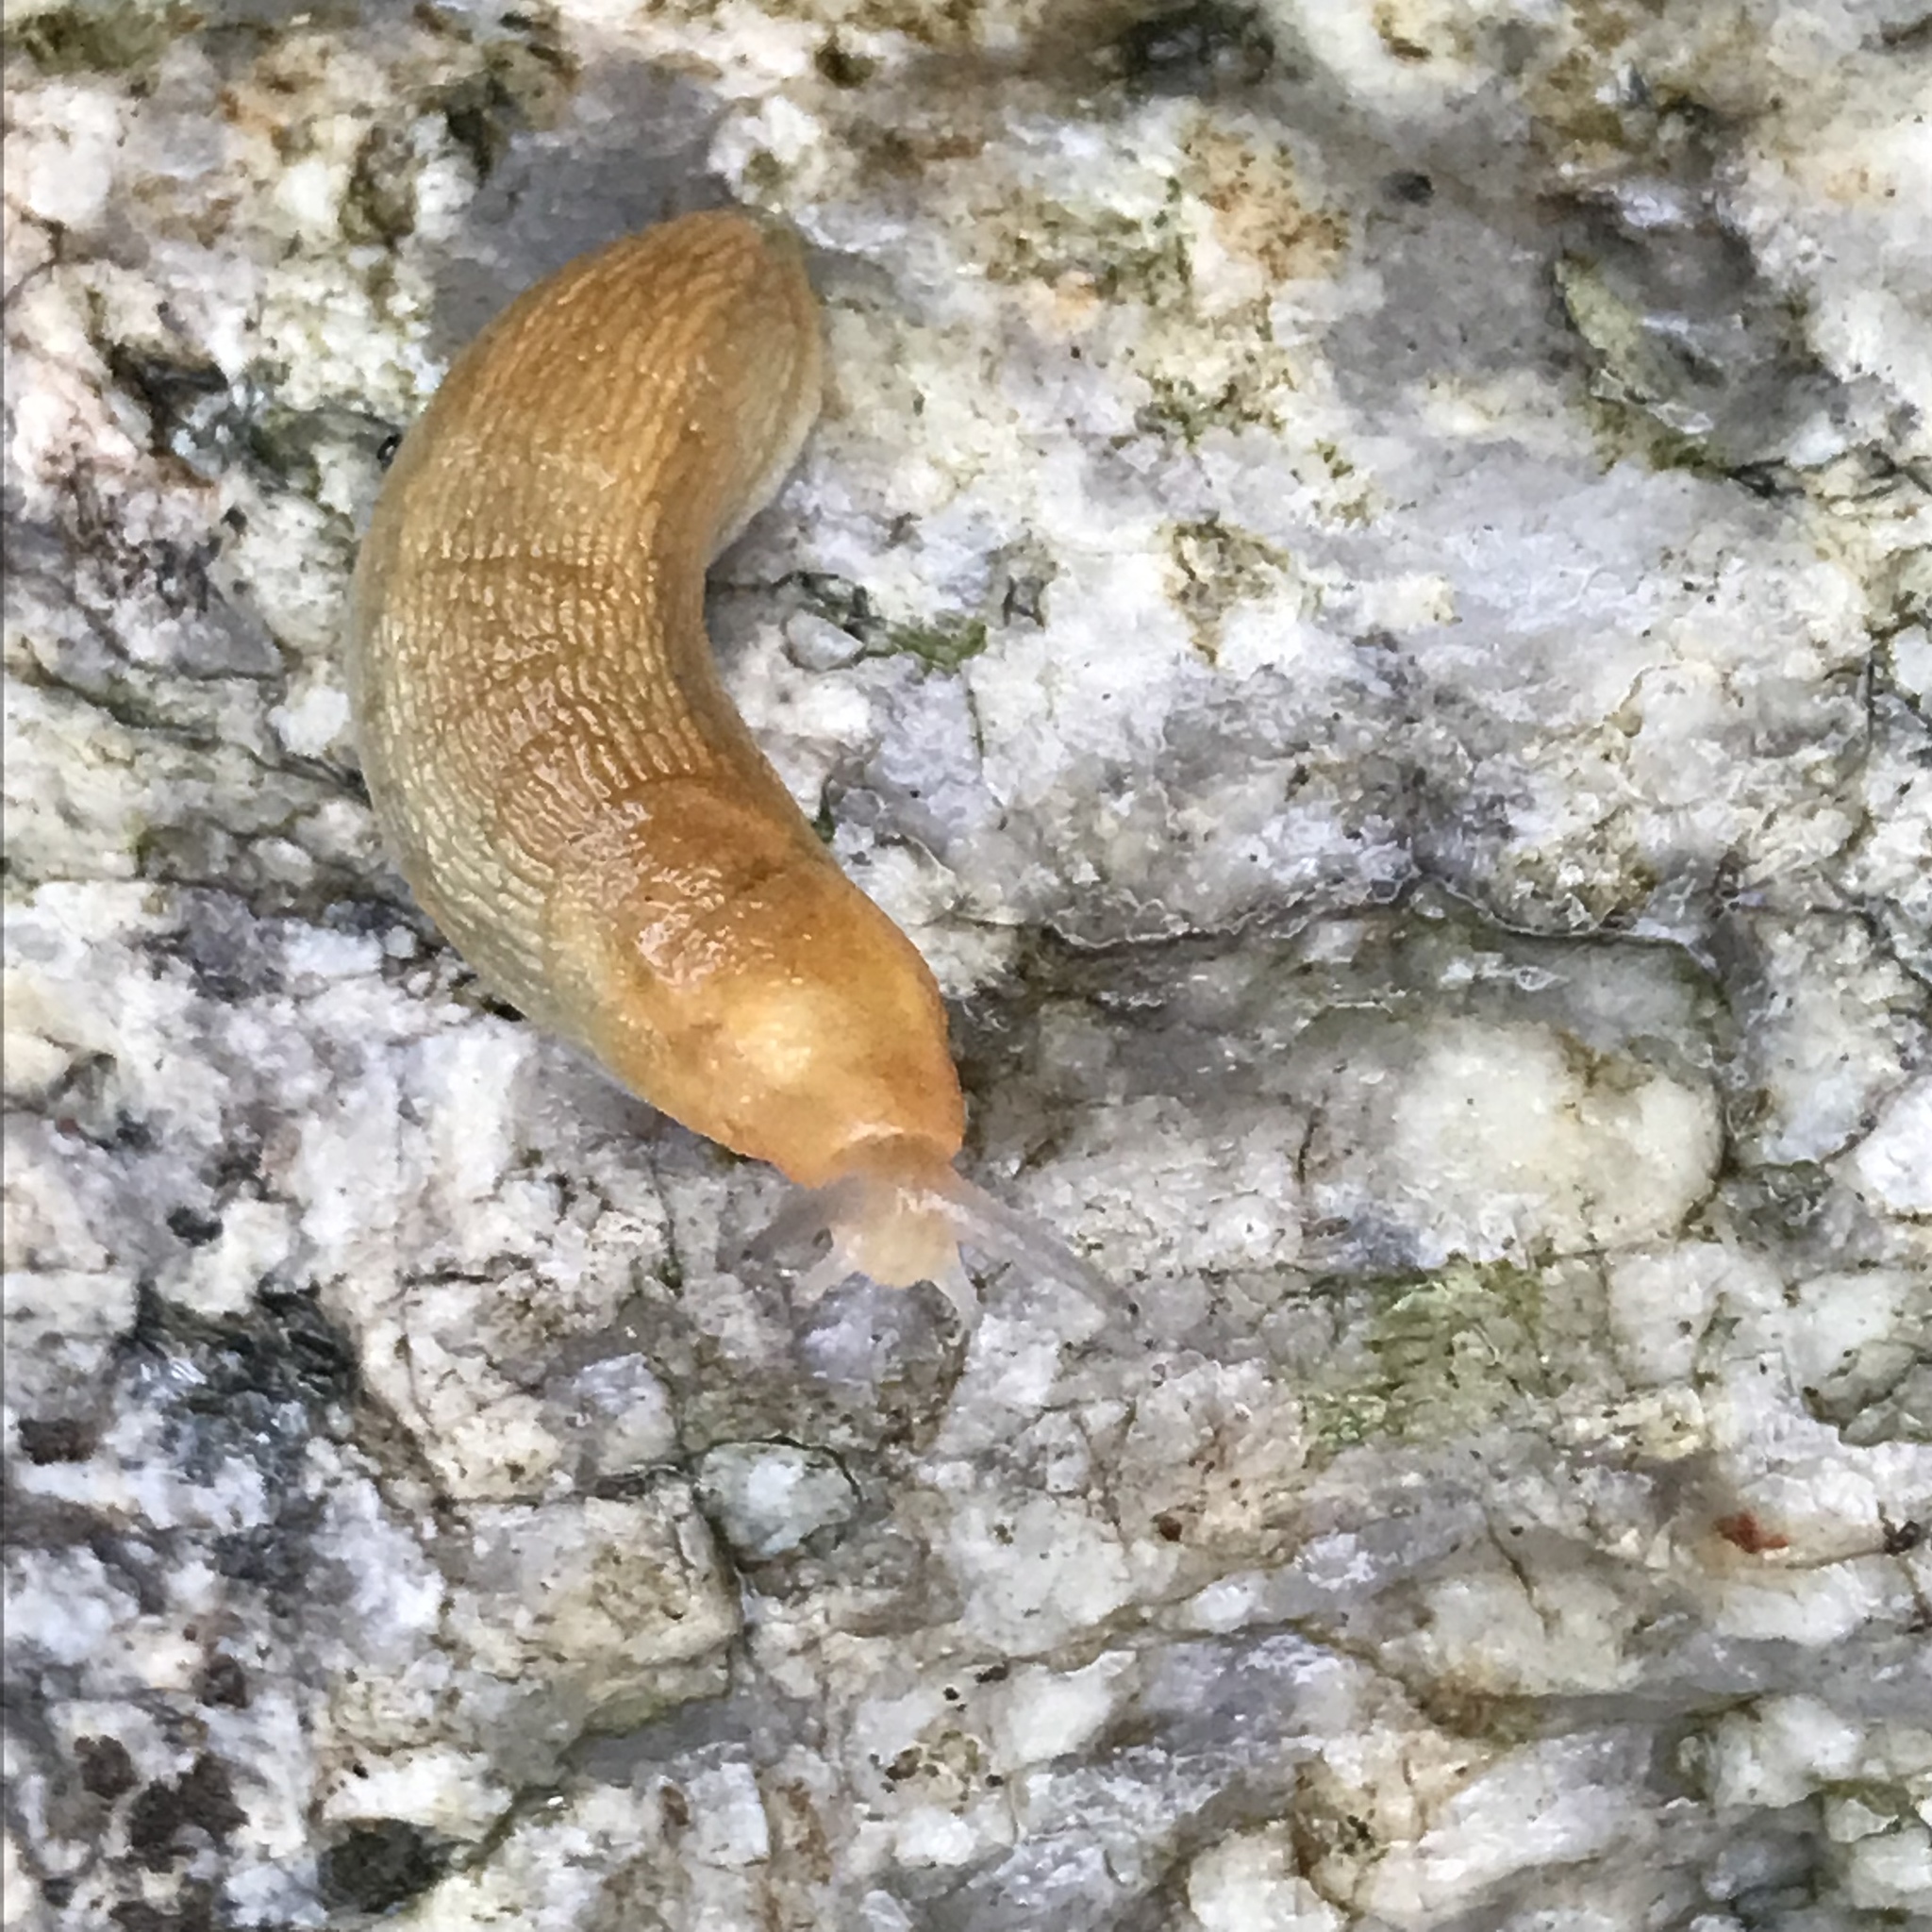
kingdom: Animalia
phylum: Mollusca
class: Gastropoda
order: Stylommatophora
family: Arionidae
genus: Arion
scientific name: Arion subfuscus
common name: Dusky arion
